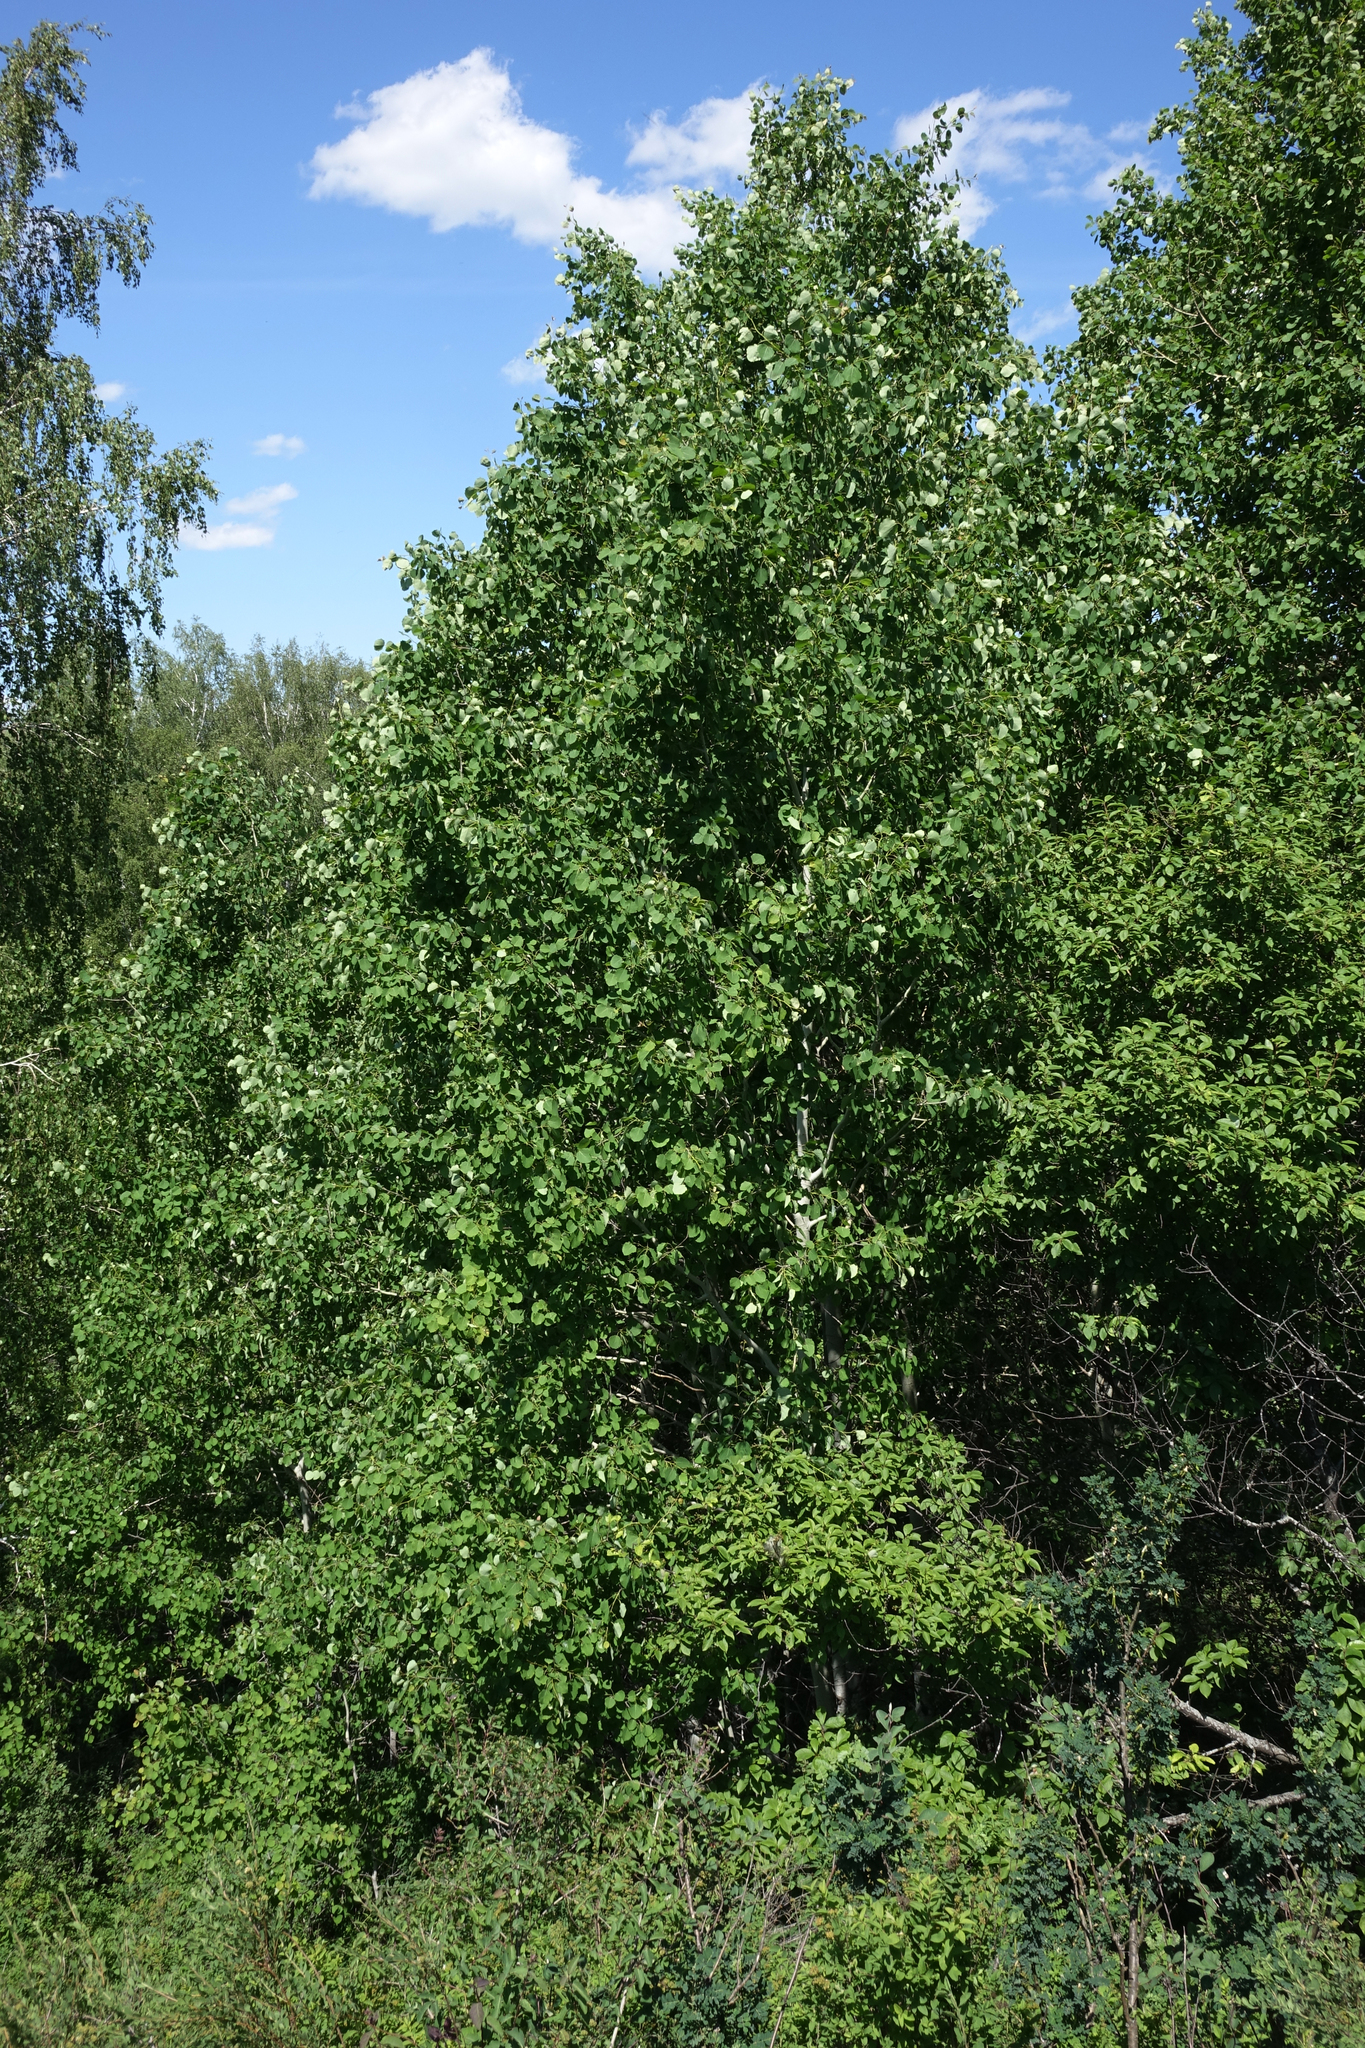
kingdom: Plantae
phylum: Tracheophyta
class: Magnoliopsida
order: Malpighiales
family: Salicaceae
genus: Populus
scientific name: Populus tremula
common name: European aspen
